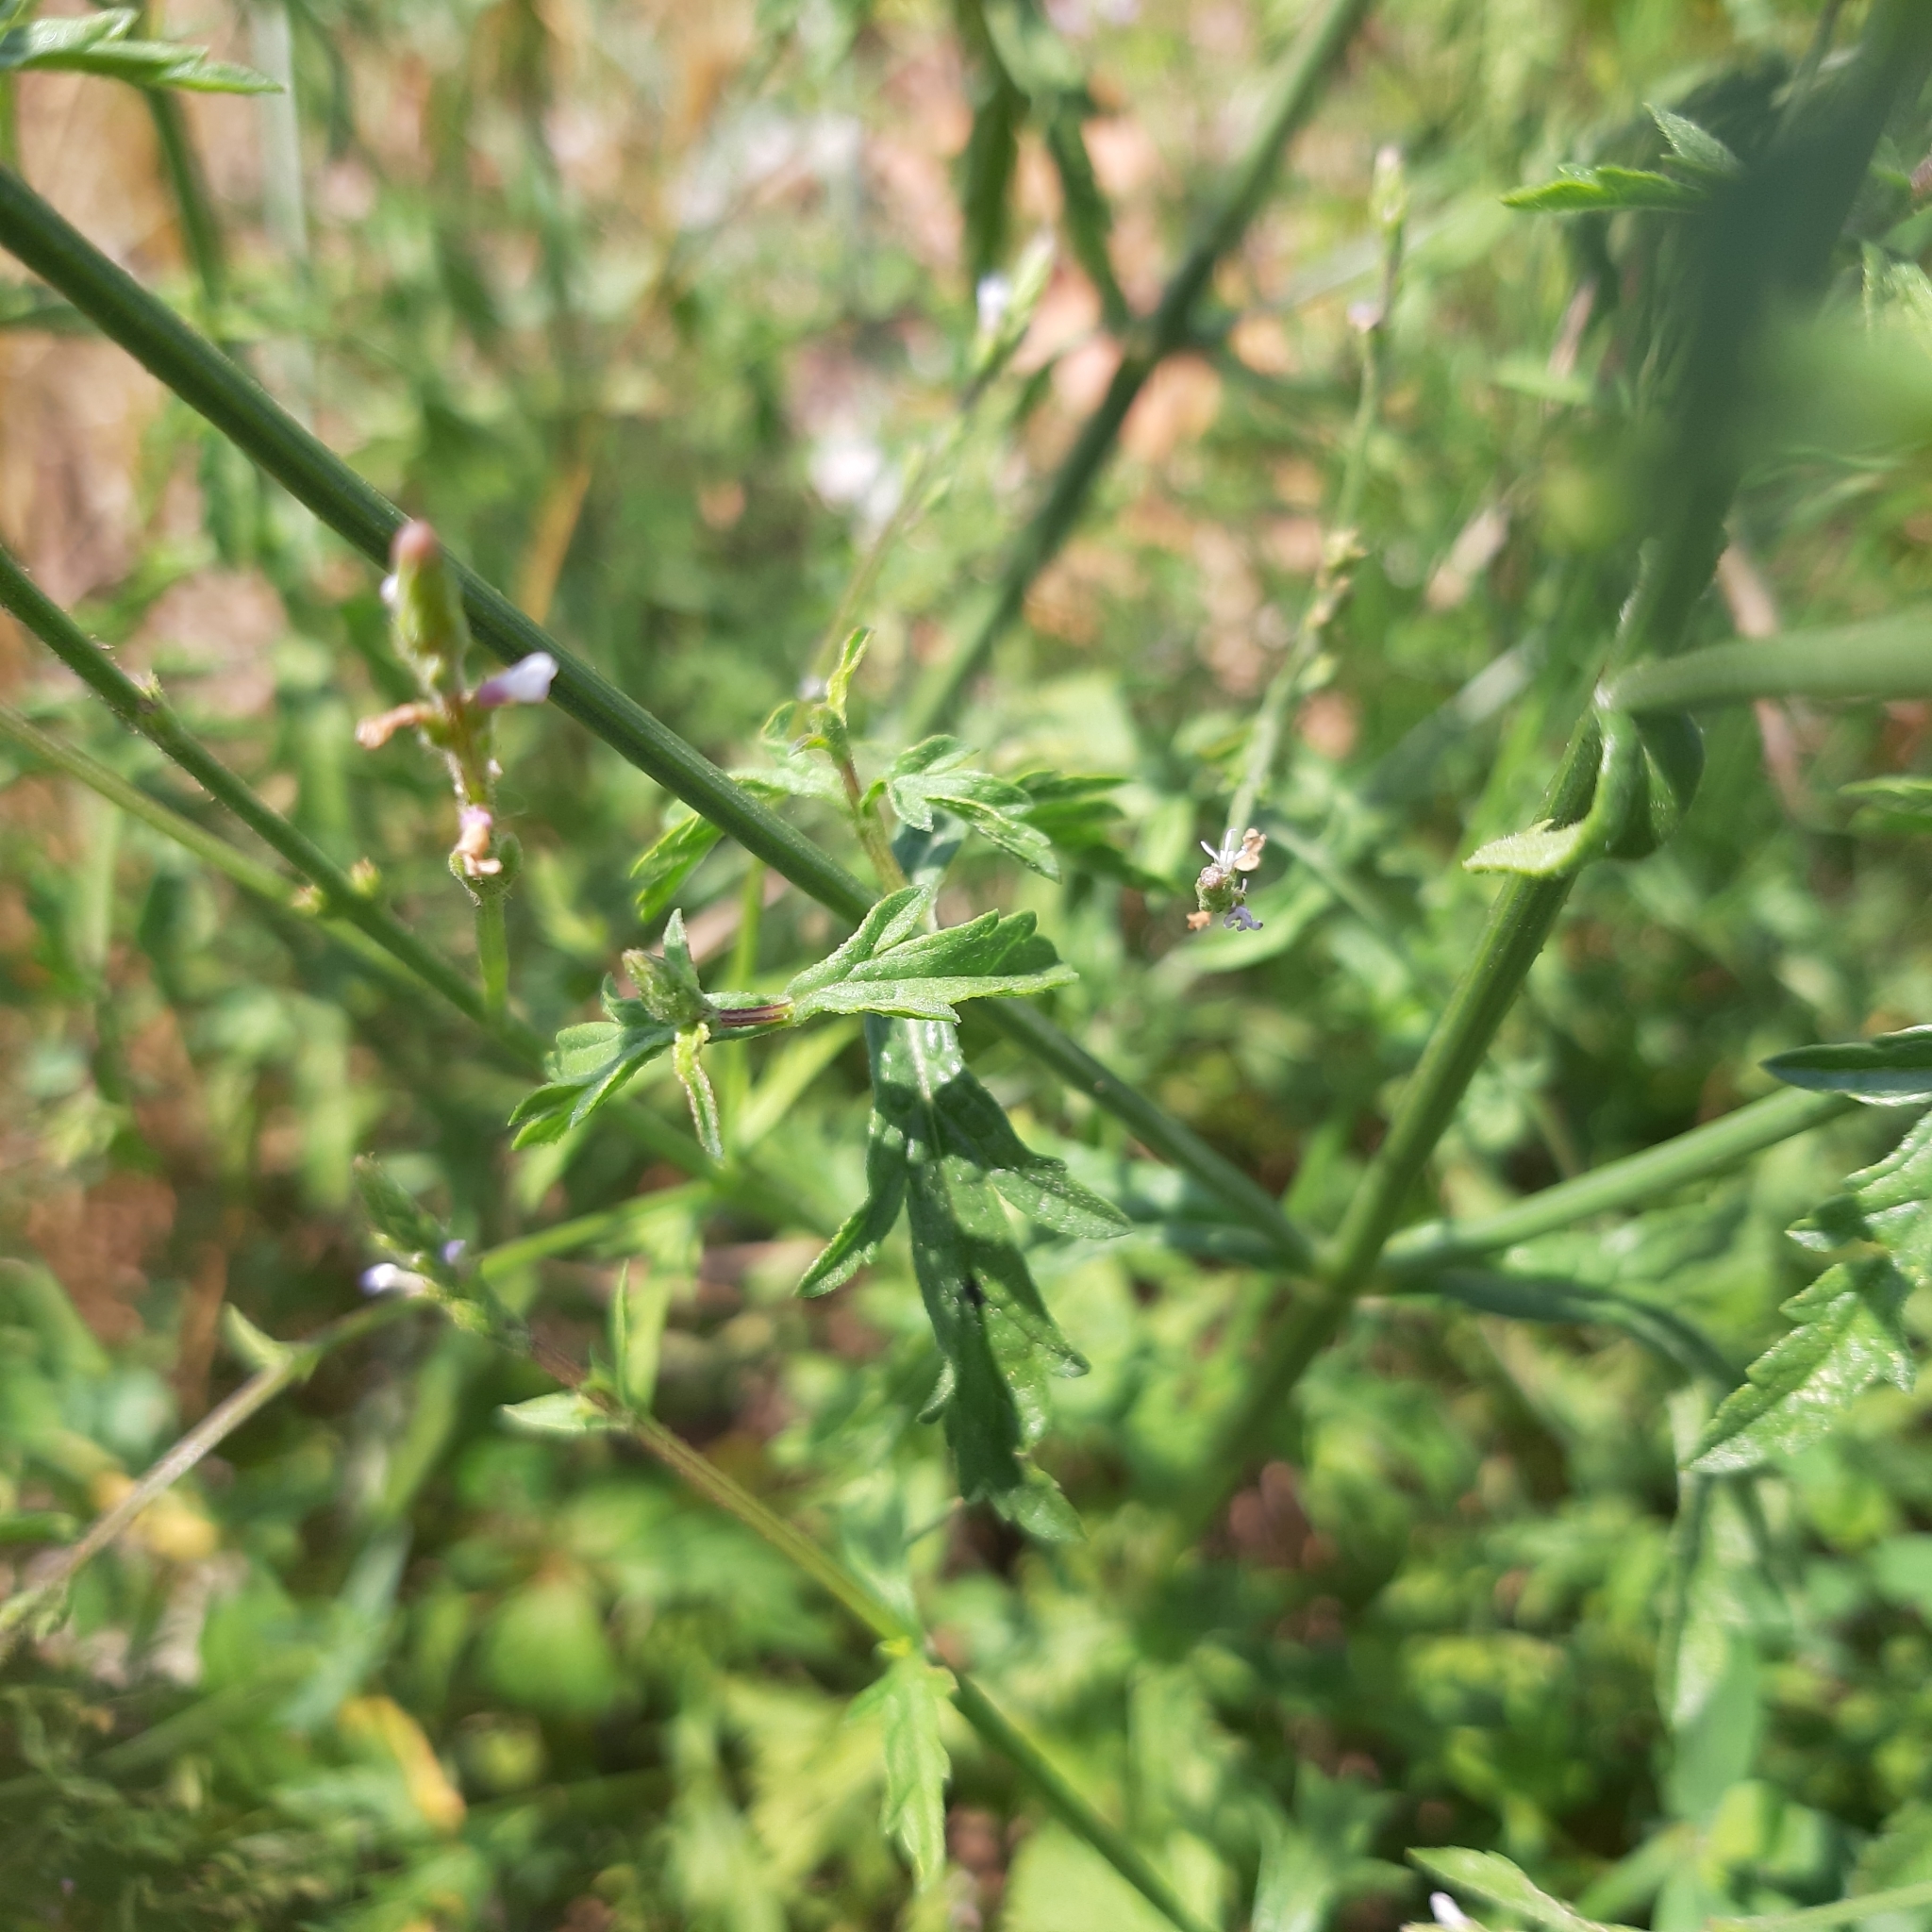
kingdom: Plantae
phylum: Tracheophyta
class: Magnoliopsida
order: Lamiales
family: Verbenaceae
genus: Verbena
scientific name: Verbena officinalis
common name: Vervain
